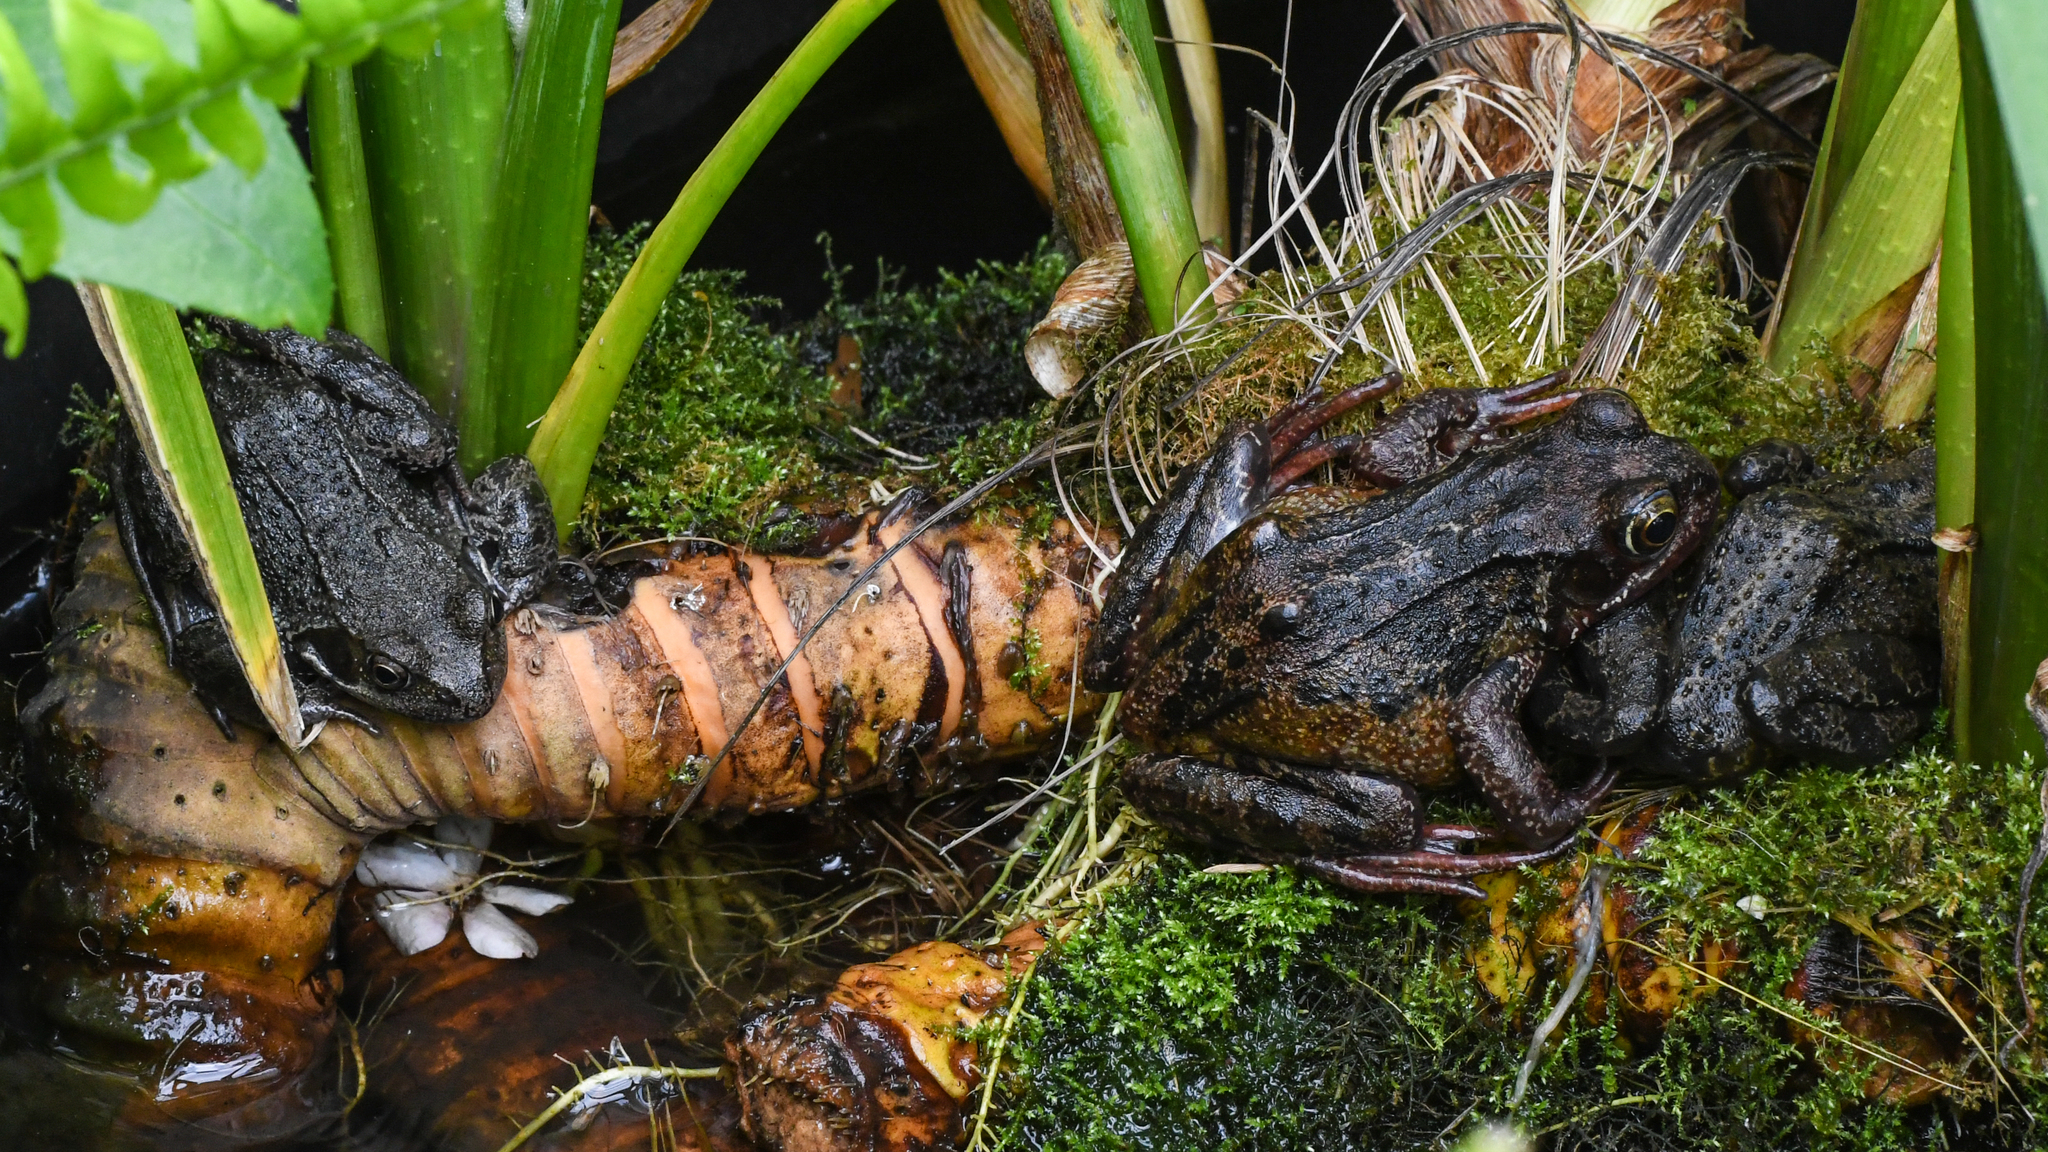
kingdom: Animalia
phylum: Chordata
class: Amphibia
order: Anura
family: Ranidae
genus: Rana
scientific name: Rana temporaria
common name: Common frog
